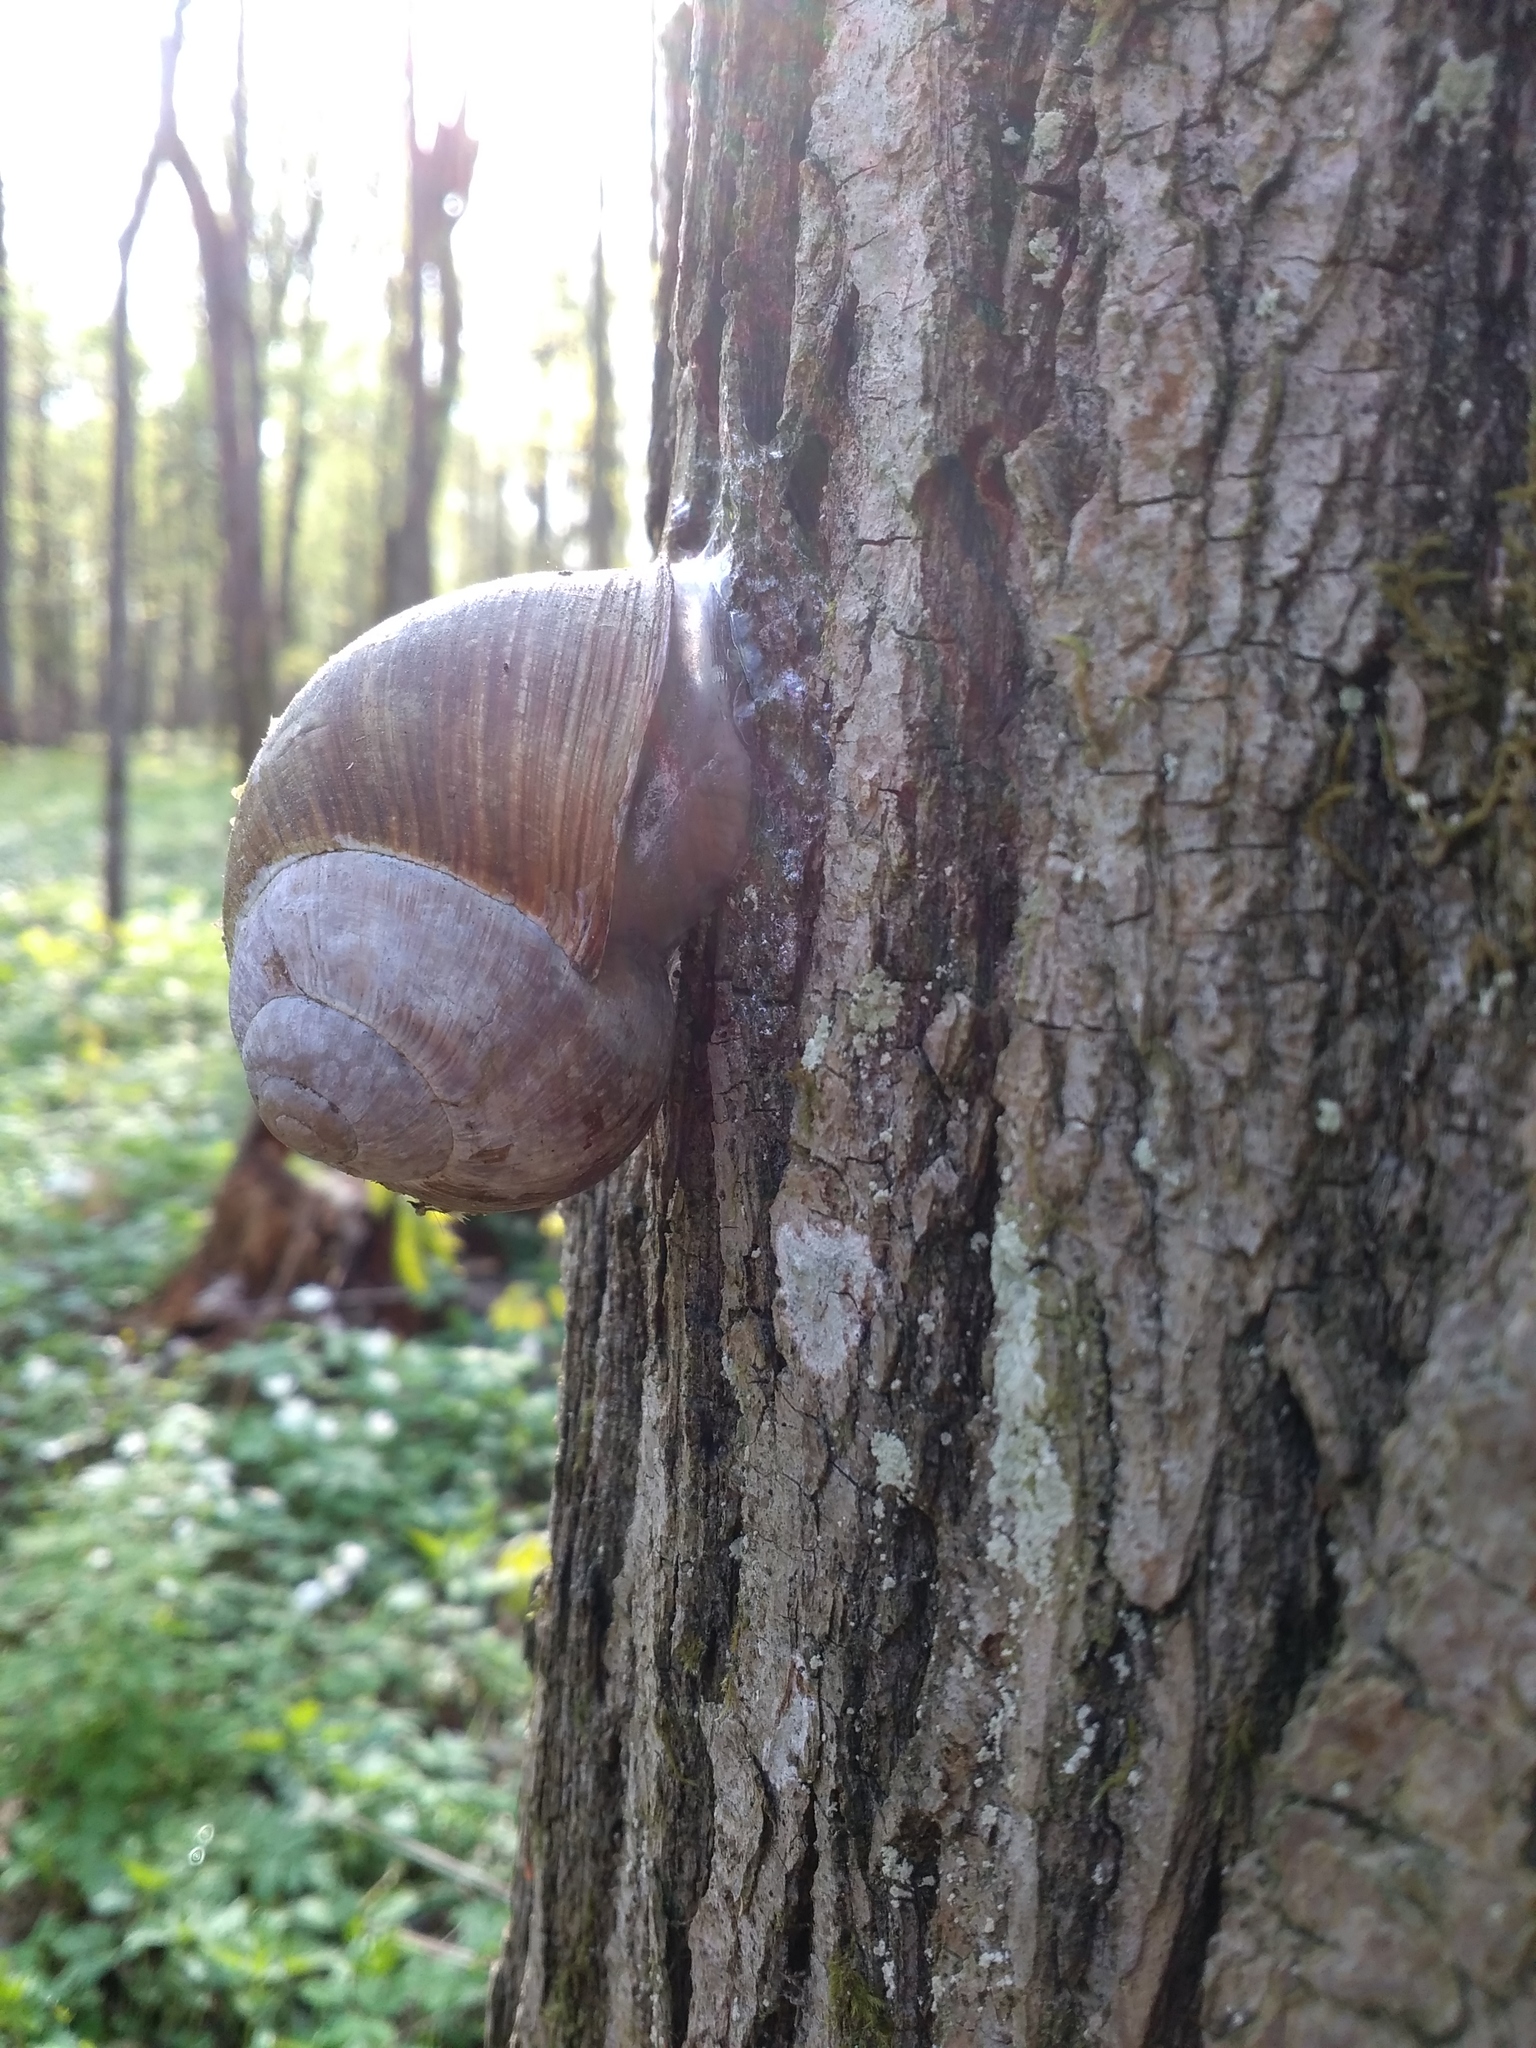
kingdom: Animalia
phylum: Mollusca
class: Gastropoda
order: Stylommatophora
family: Helicidae
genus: Helix
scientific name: Helix pomatia
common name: Roman snail
